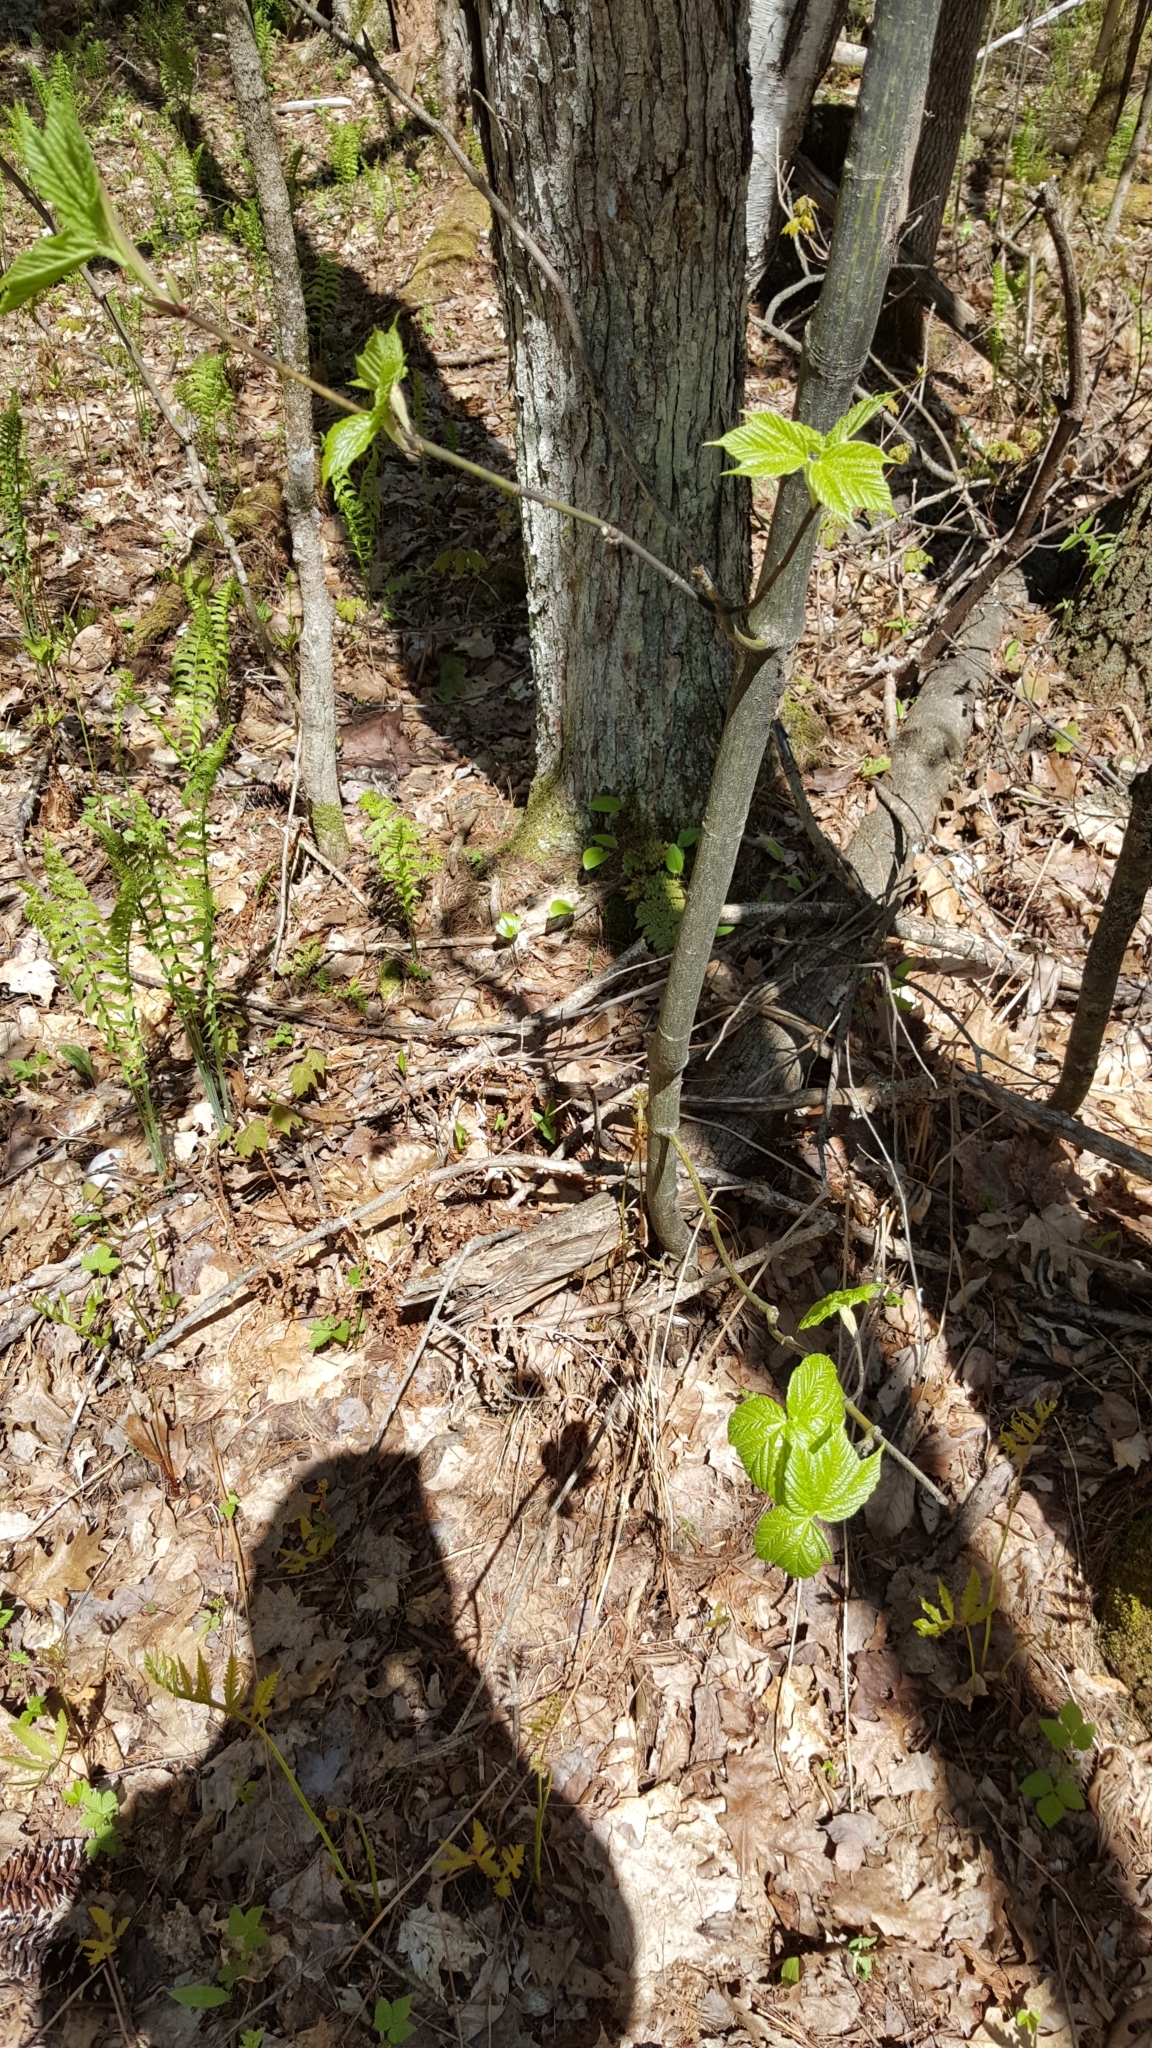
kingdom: Plantae
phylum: Tracheophyta
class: Magnoliopsida
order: Sapindales
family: Sapindaceae
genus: Acer
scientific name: Acer pensylvanicum
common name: Moosewood
